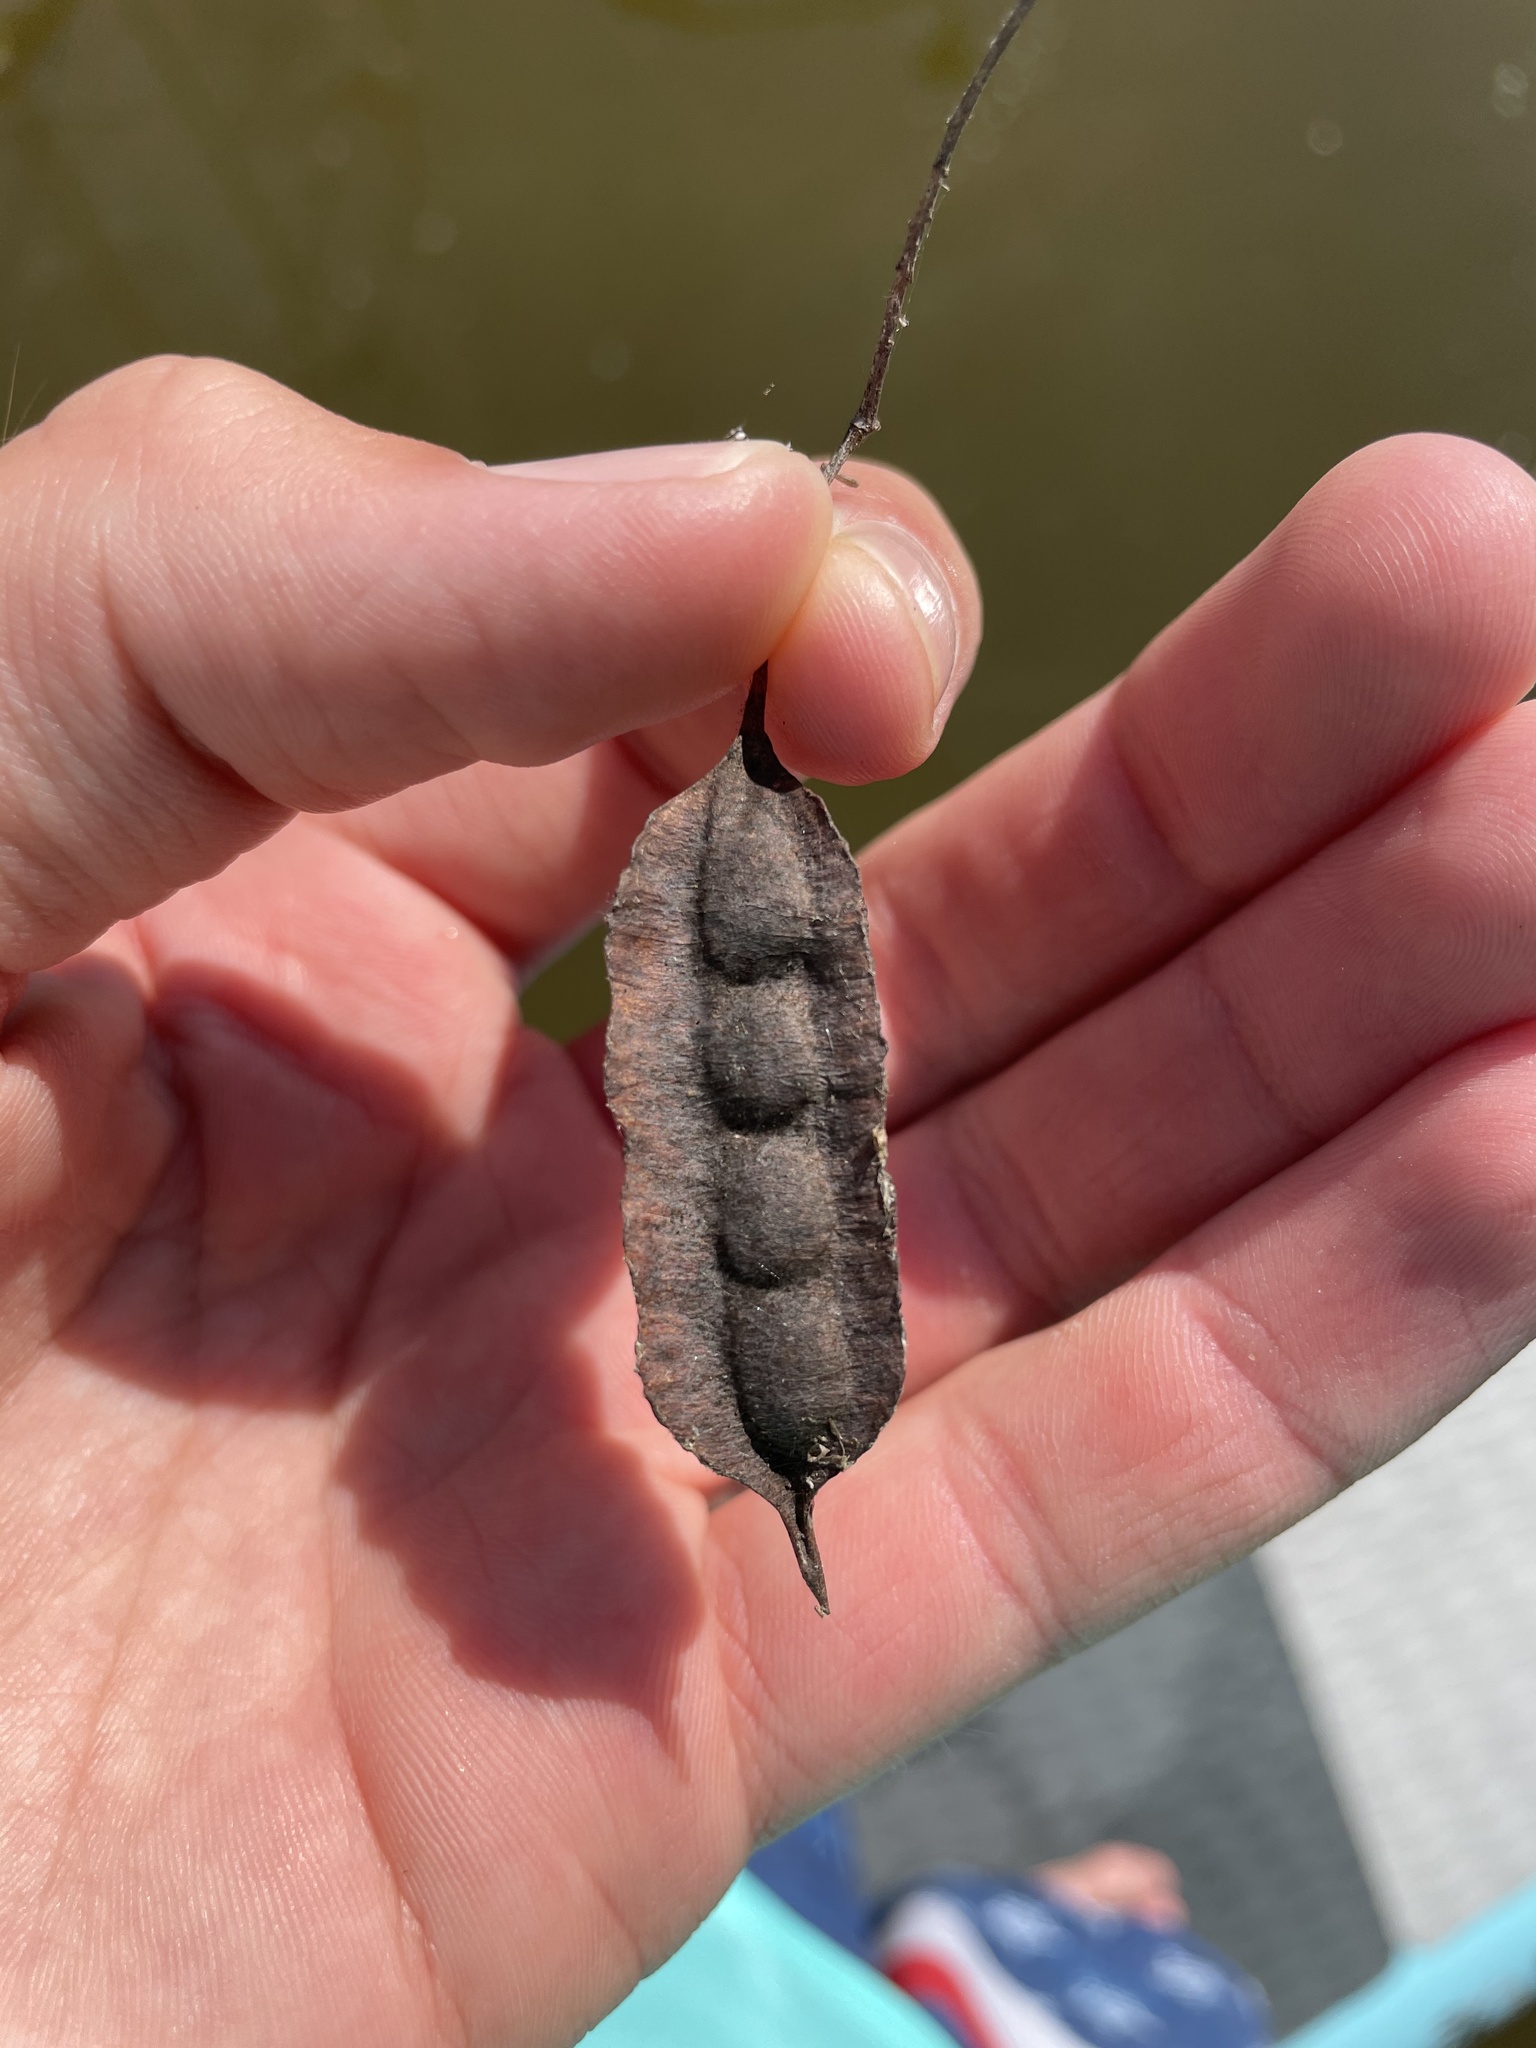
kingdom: Plantae
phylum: Tracheophyta
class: Magnoliopsida
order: Fabales
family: Fabaceae
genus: Sesbania
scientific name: Sesbania drummondii
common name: Poison-bean
